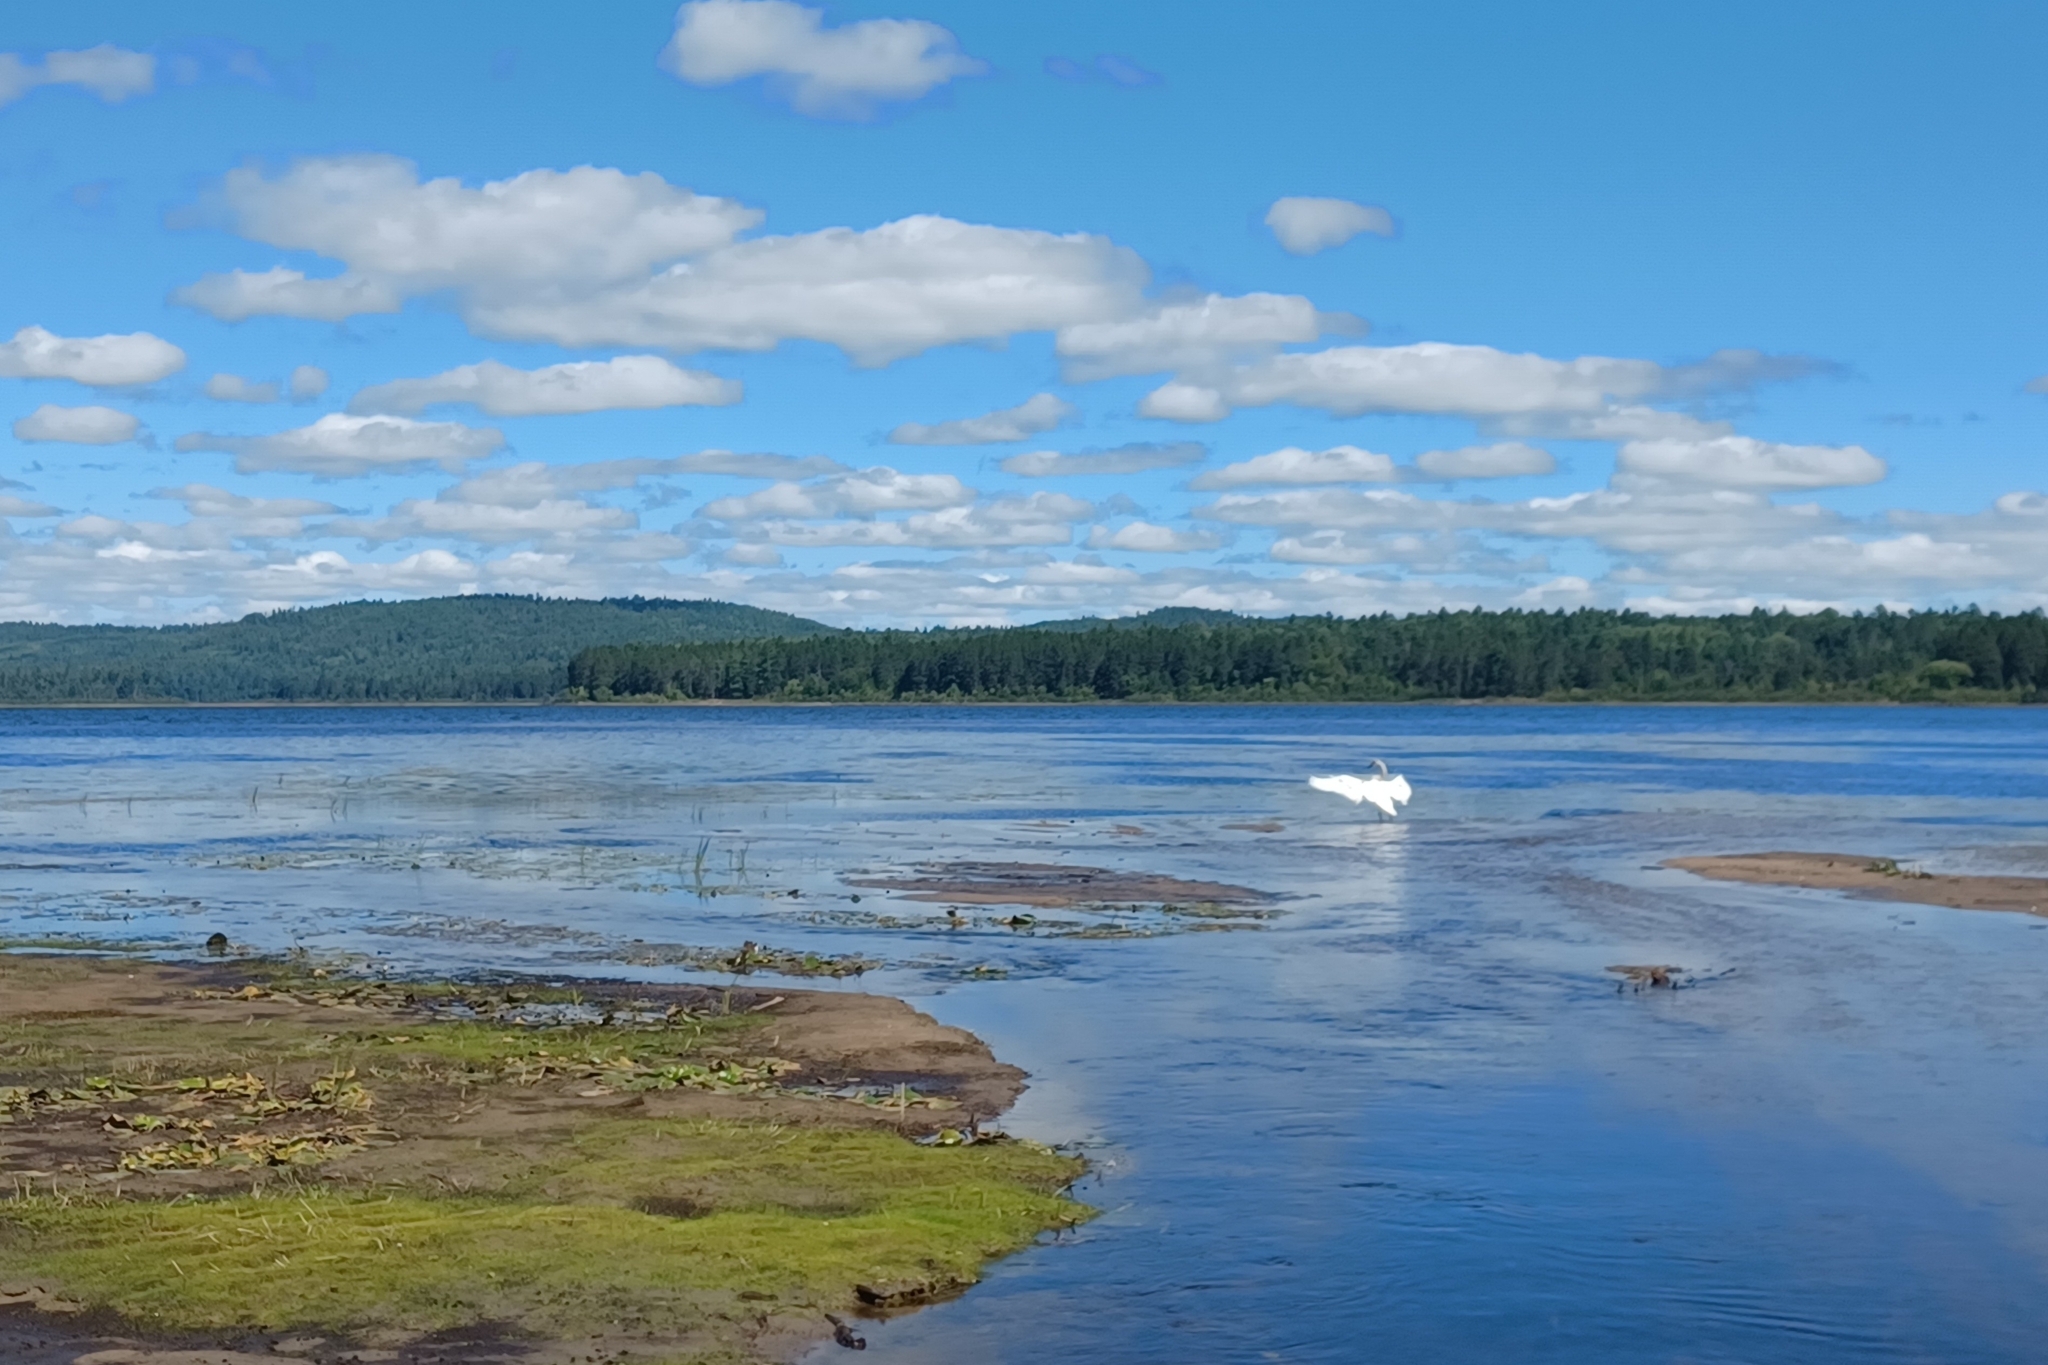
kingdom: Animalia
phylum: Chordata
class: Aves
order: Anseriformes
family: Anatidae
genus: Cygnus
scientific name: Cygnus buccinator
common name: Trumpeter swan
